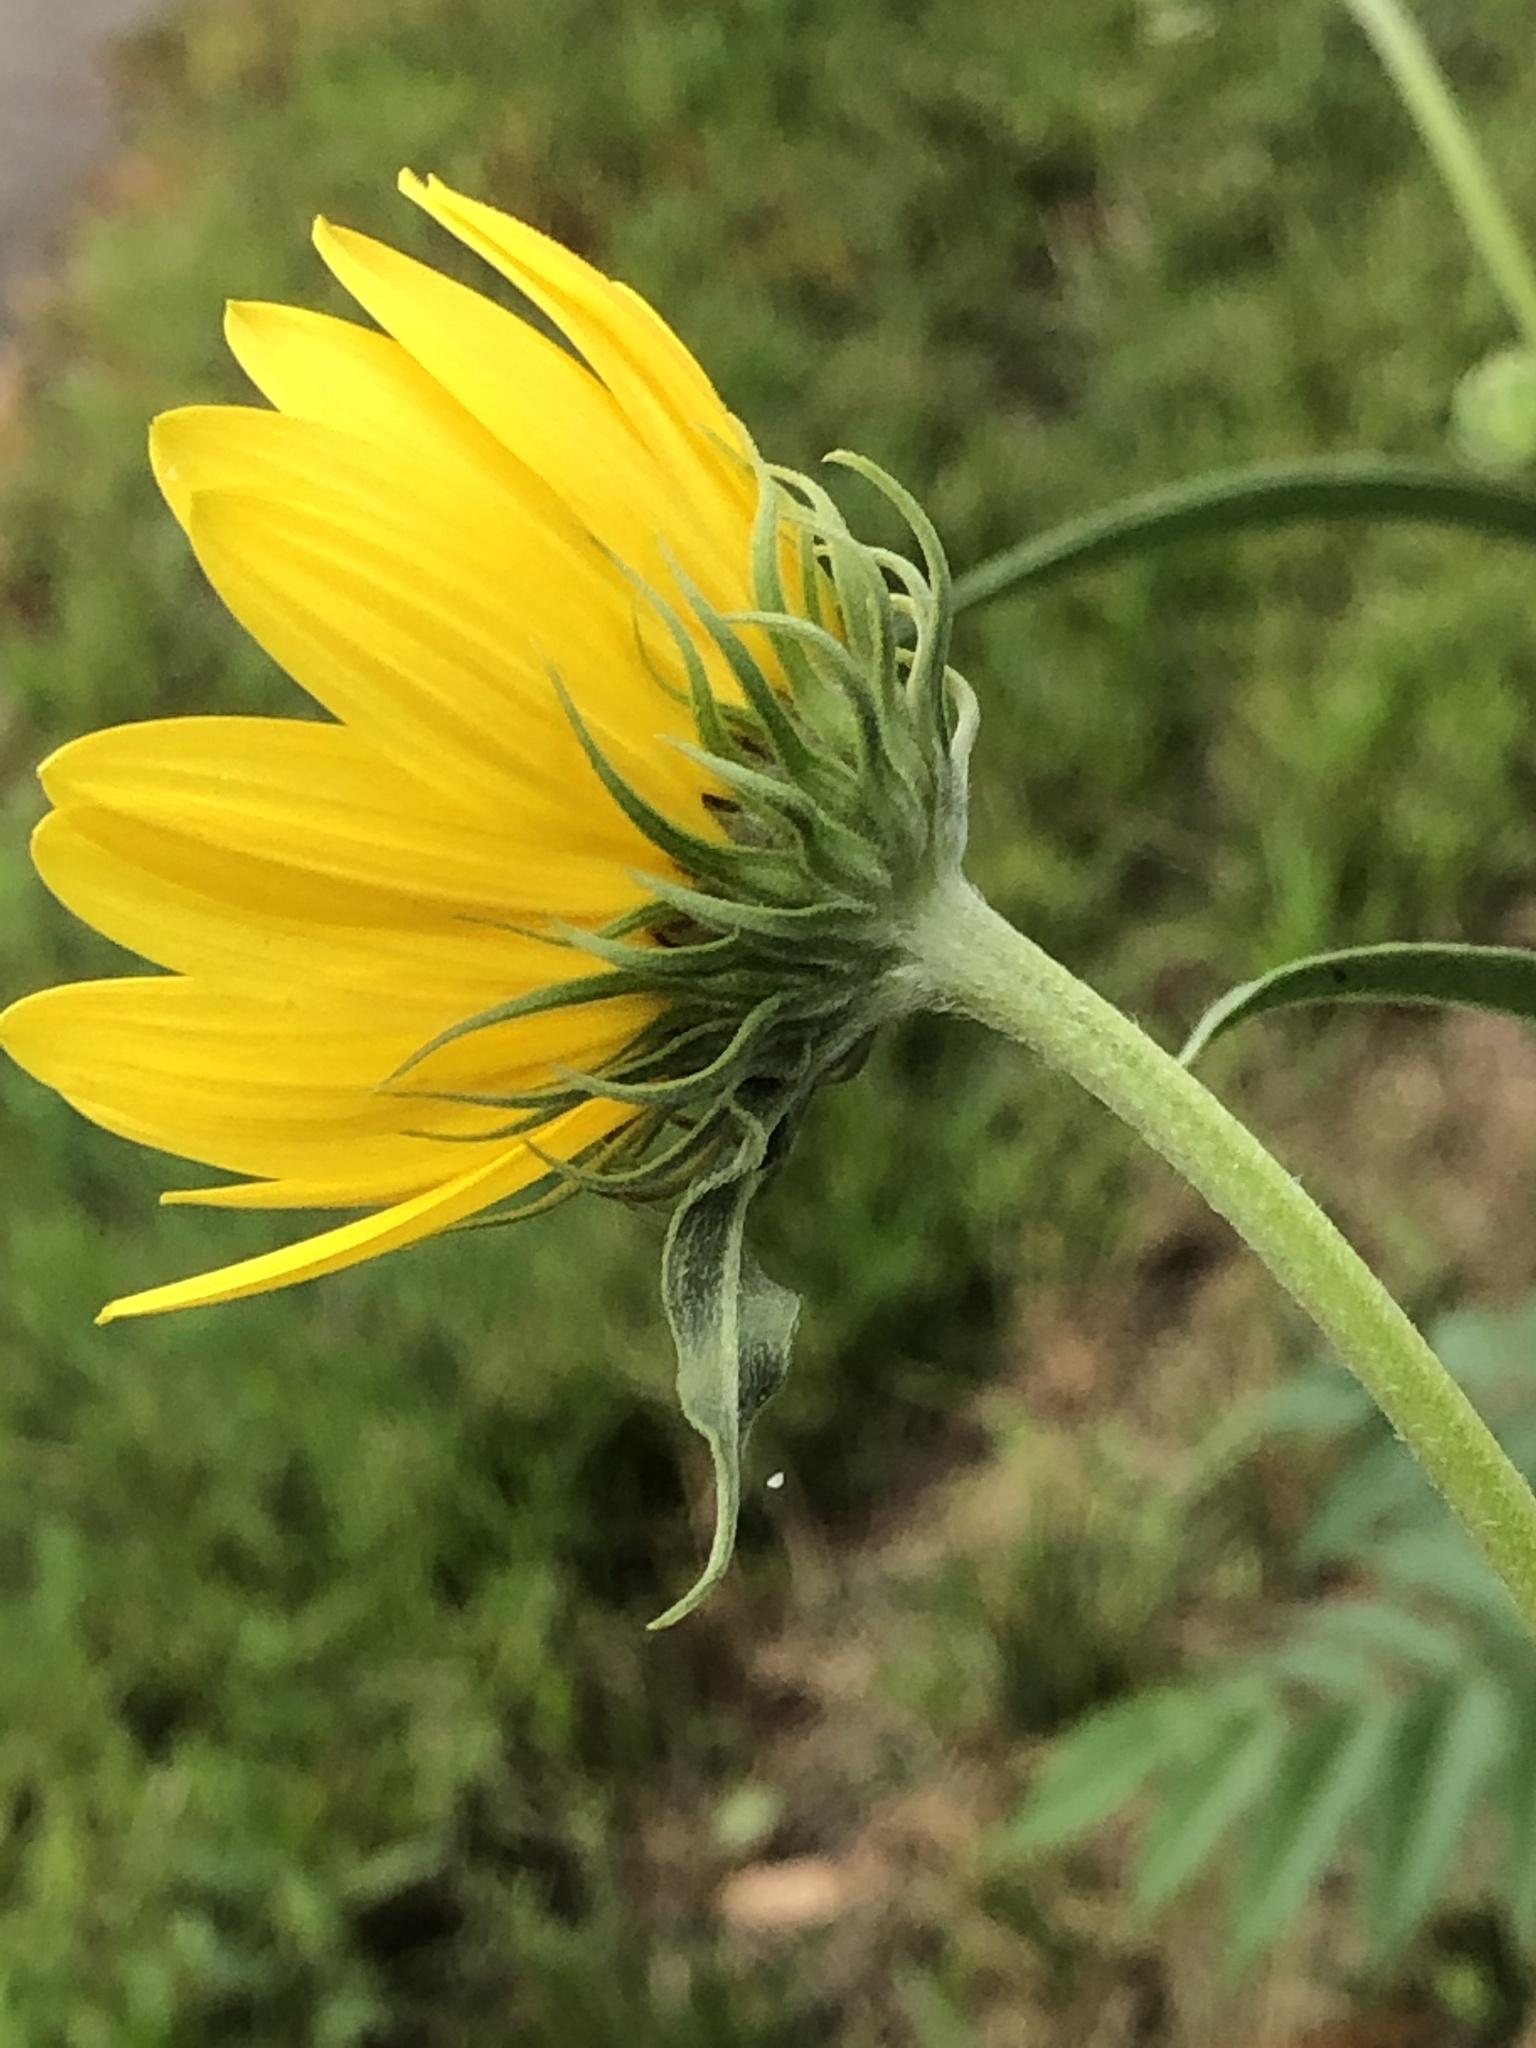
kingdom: Plantae
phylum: Tracheophyta
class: Magnoliopsida
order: Asterales
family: Asteraceae
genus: Helianthus
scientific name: Helianthus maximiliani
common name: Maximilian's sunflower
